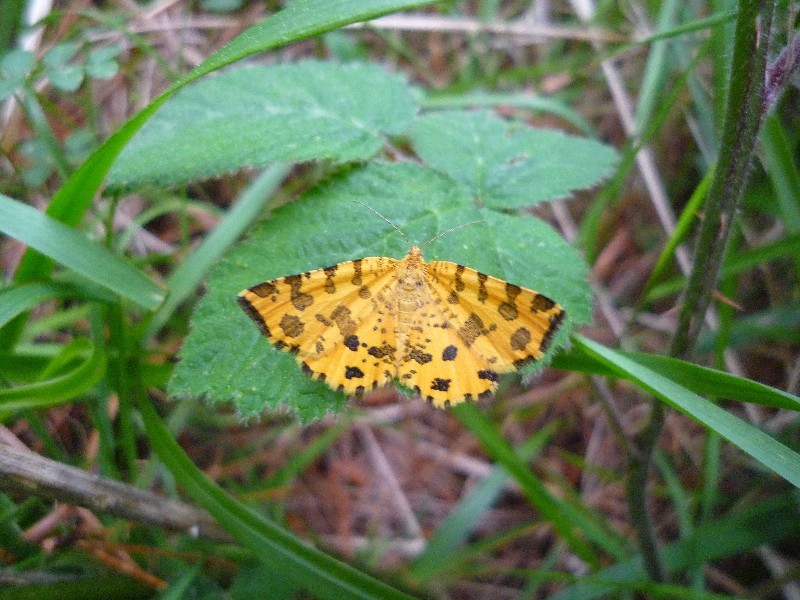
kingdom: Animalia
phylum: Arthropoda
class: Insecta
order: Lepidoptera
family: Geometridae
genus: Pseudopanthera
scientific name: Pseudopanthera macularia
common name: Speckled yellow
